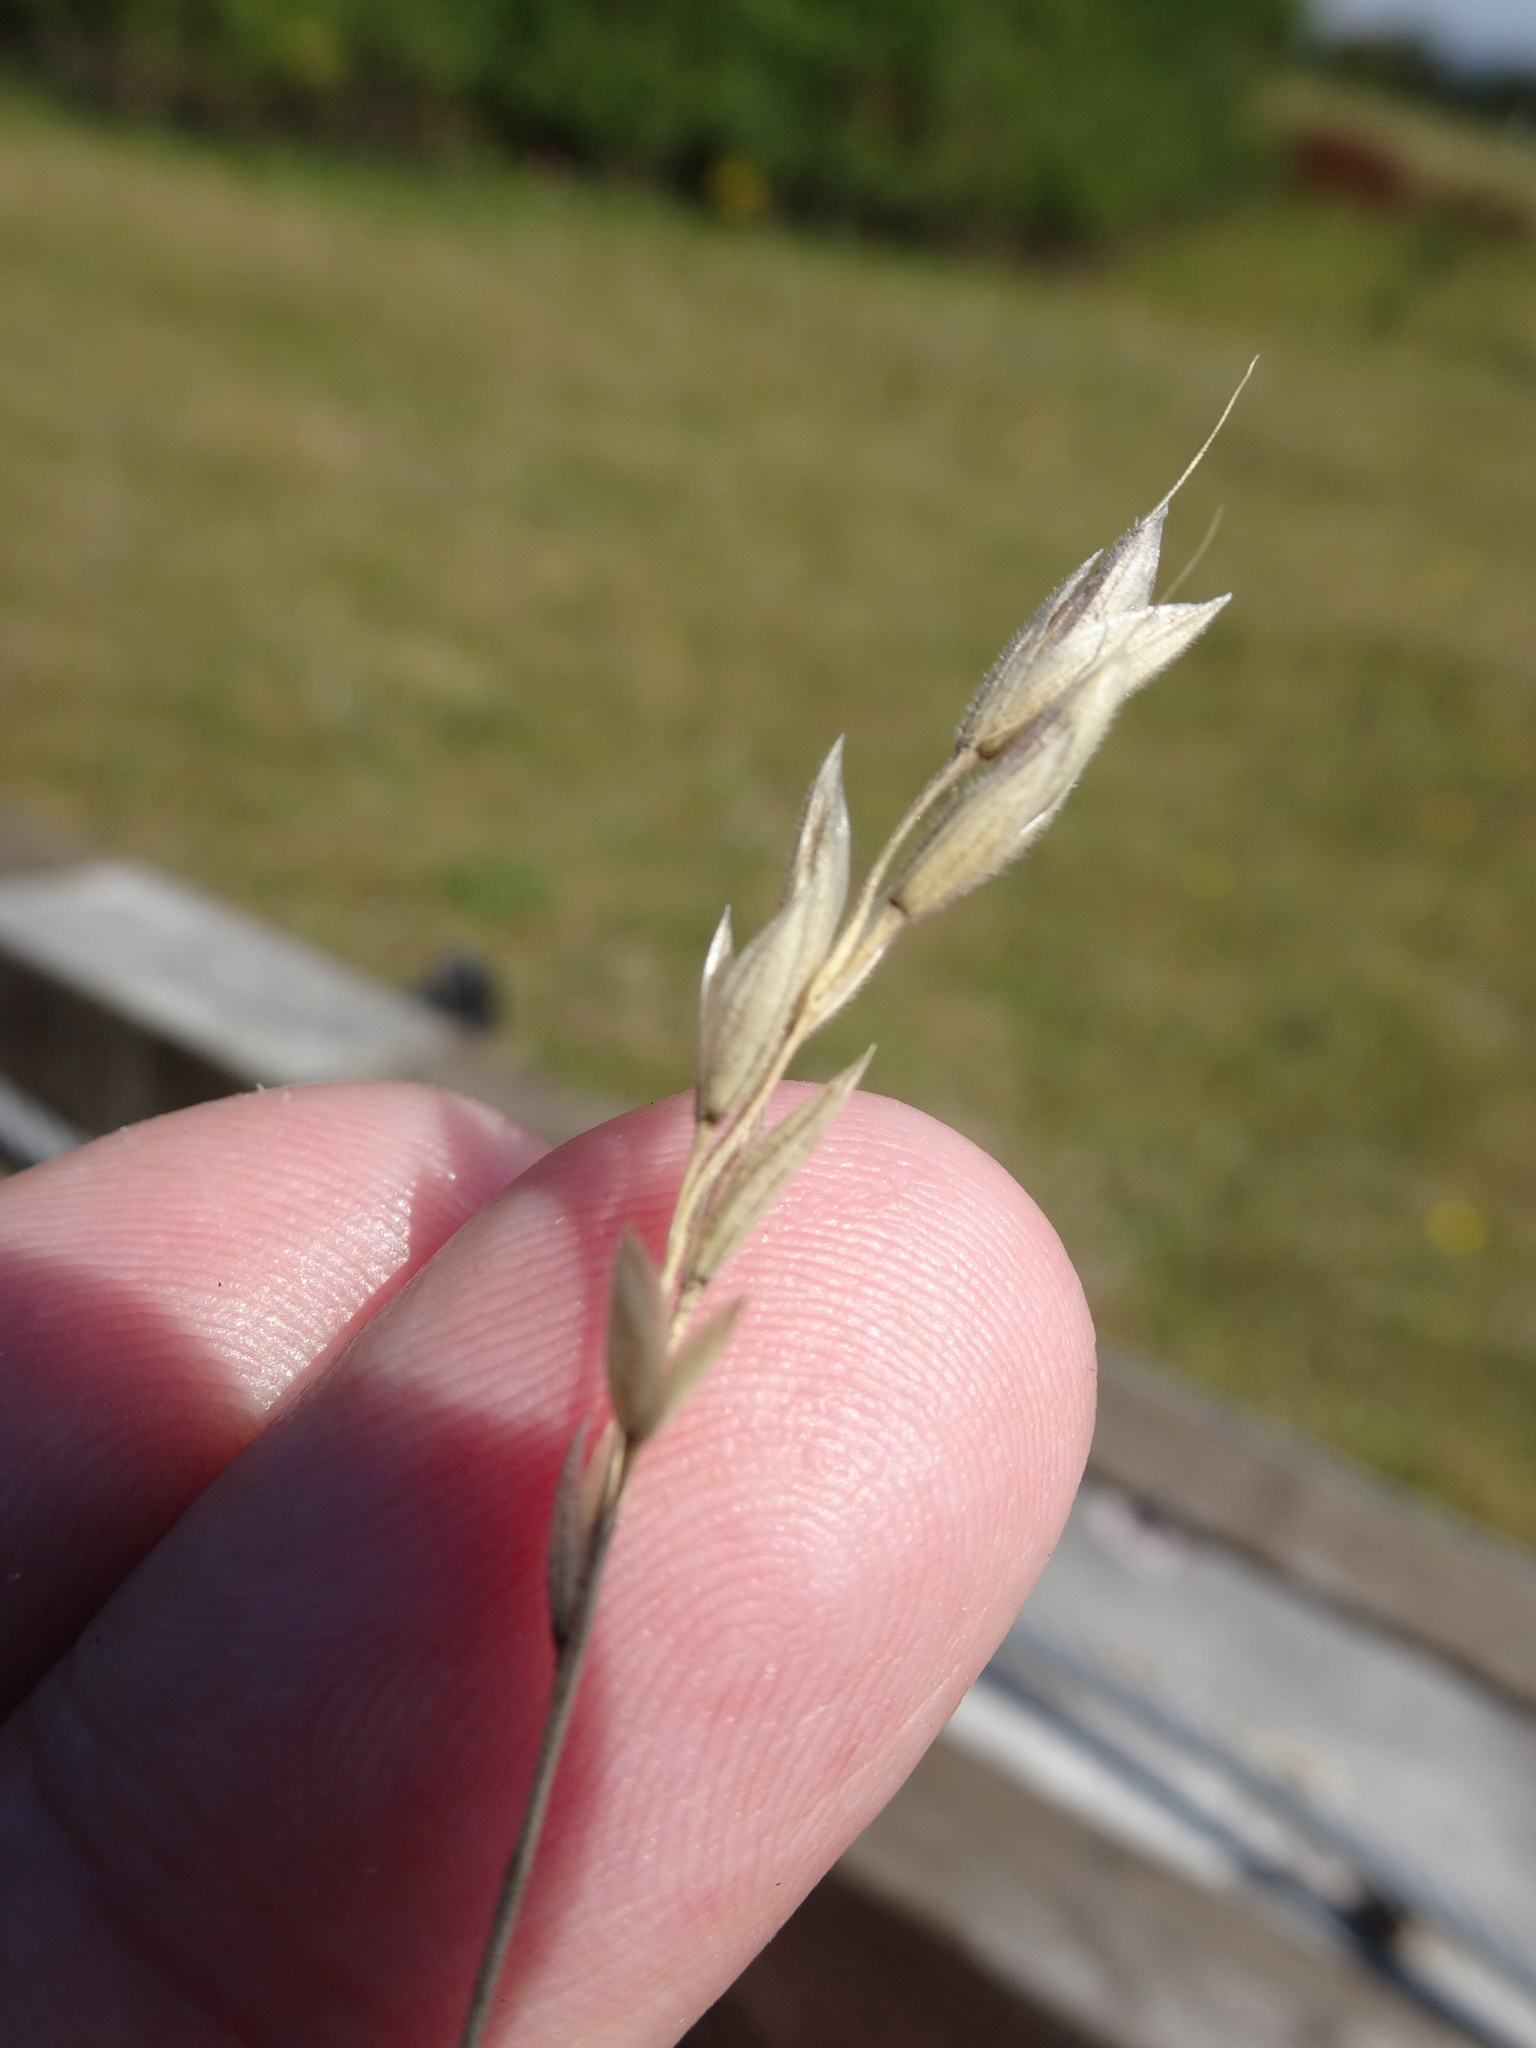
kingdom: Plantae
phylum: Tracheophyta
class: Liliopsida
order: Poales
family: Poaceae
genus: Bromus
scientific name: Bromus hordeaceus
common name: Soft brome
